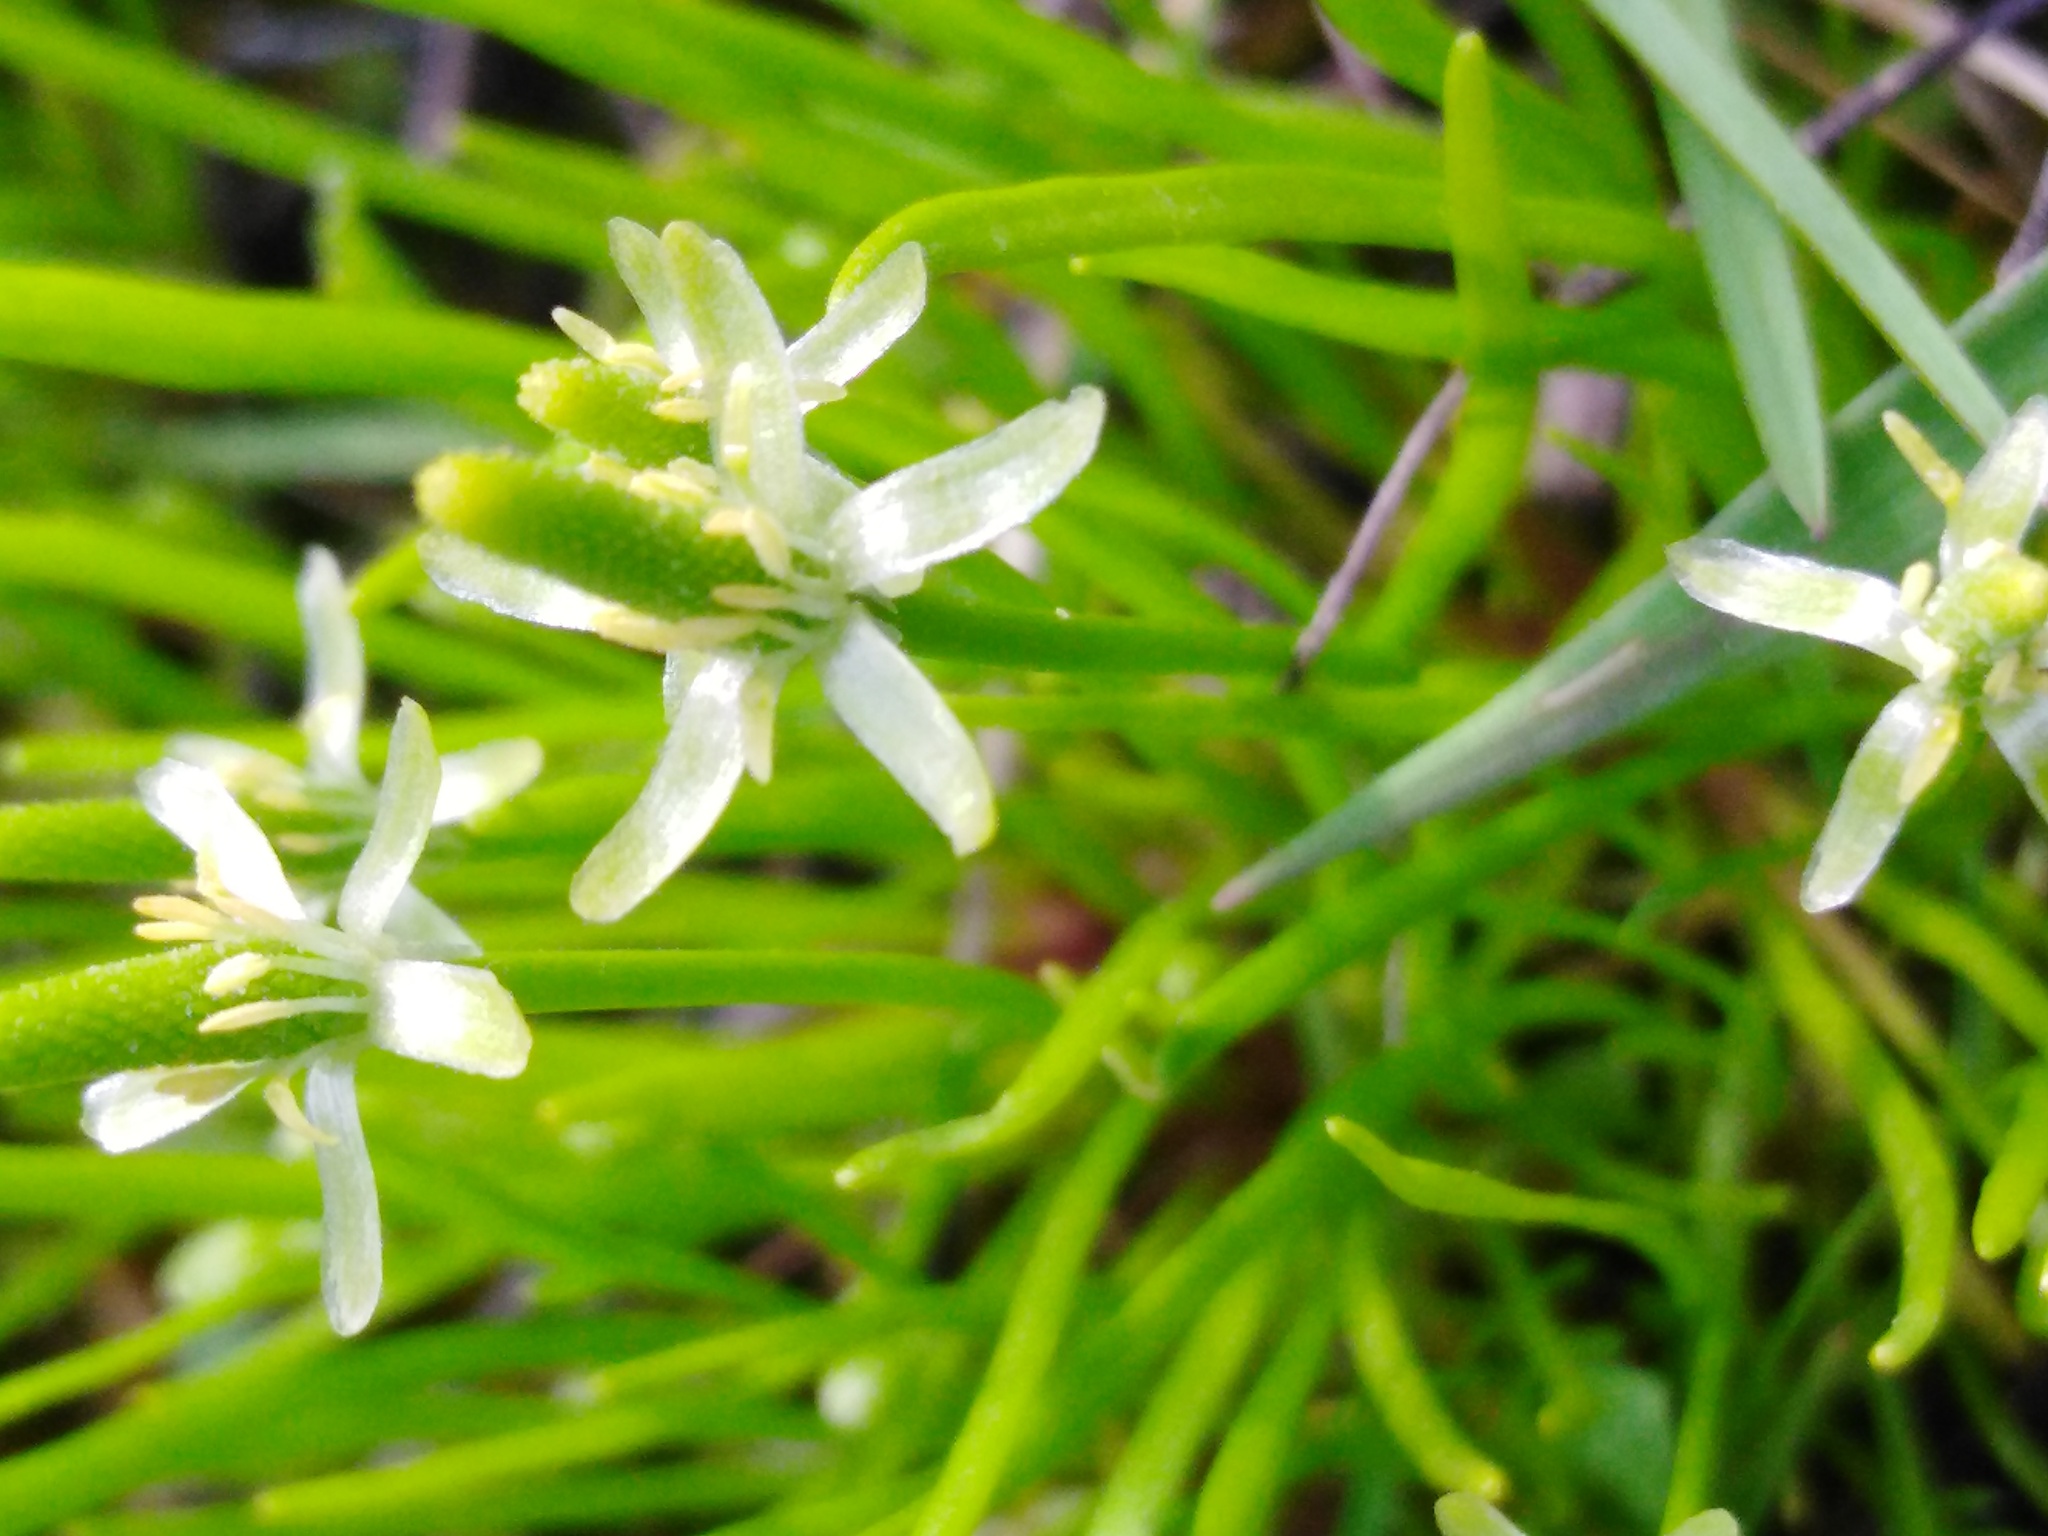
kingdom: Plantae
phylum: Tracheophyta
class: Magnoliopsida
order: Ranunculales
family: Ranunculaceae
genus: Myosurus
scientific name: Myosurus minimus
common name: Mousetail
